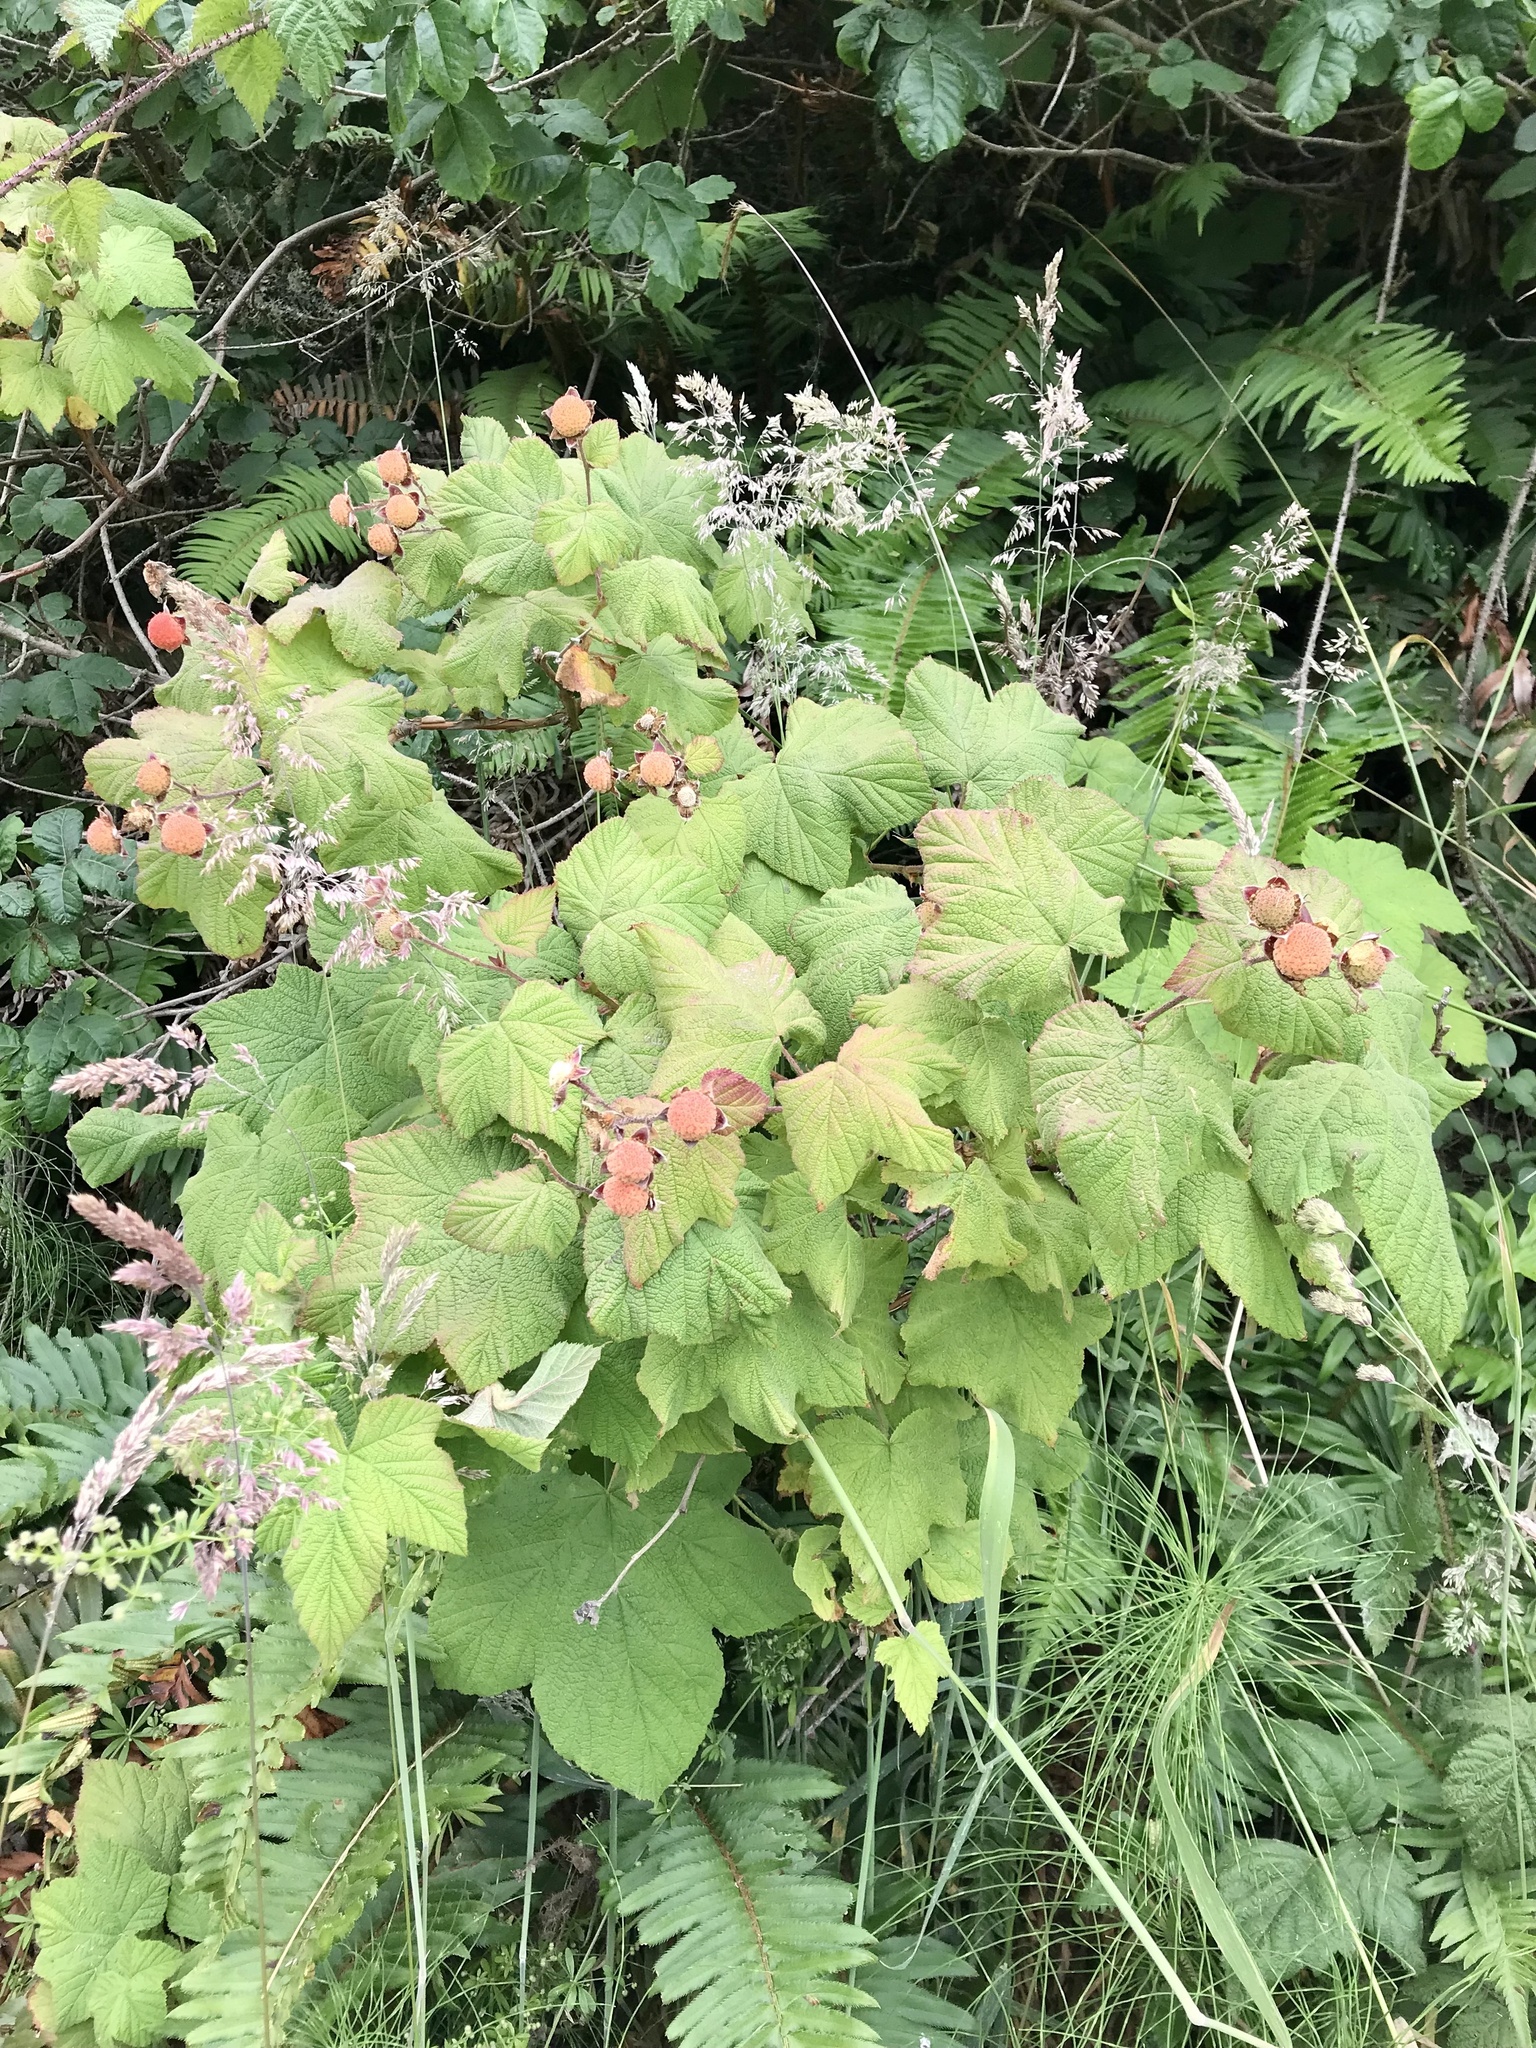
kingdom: Plantae
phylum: Tracheophyta
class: Magnoliopsida
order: Rosales
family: Rosaceae
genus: Rubus
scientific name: Rubus parviflorus
